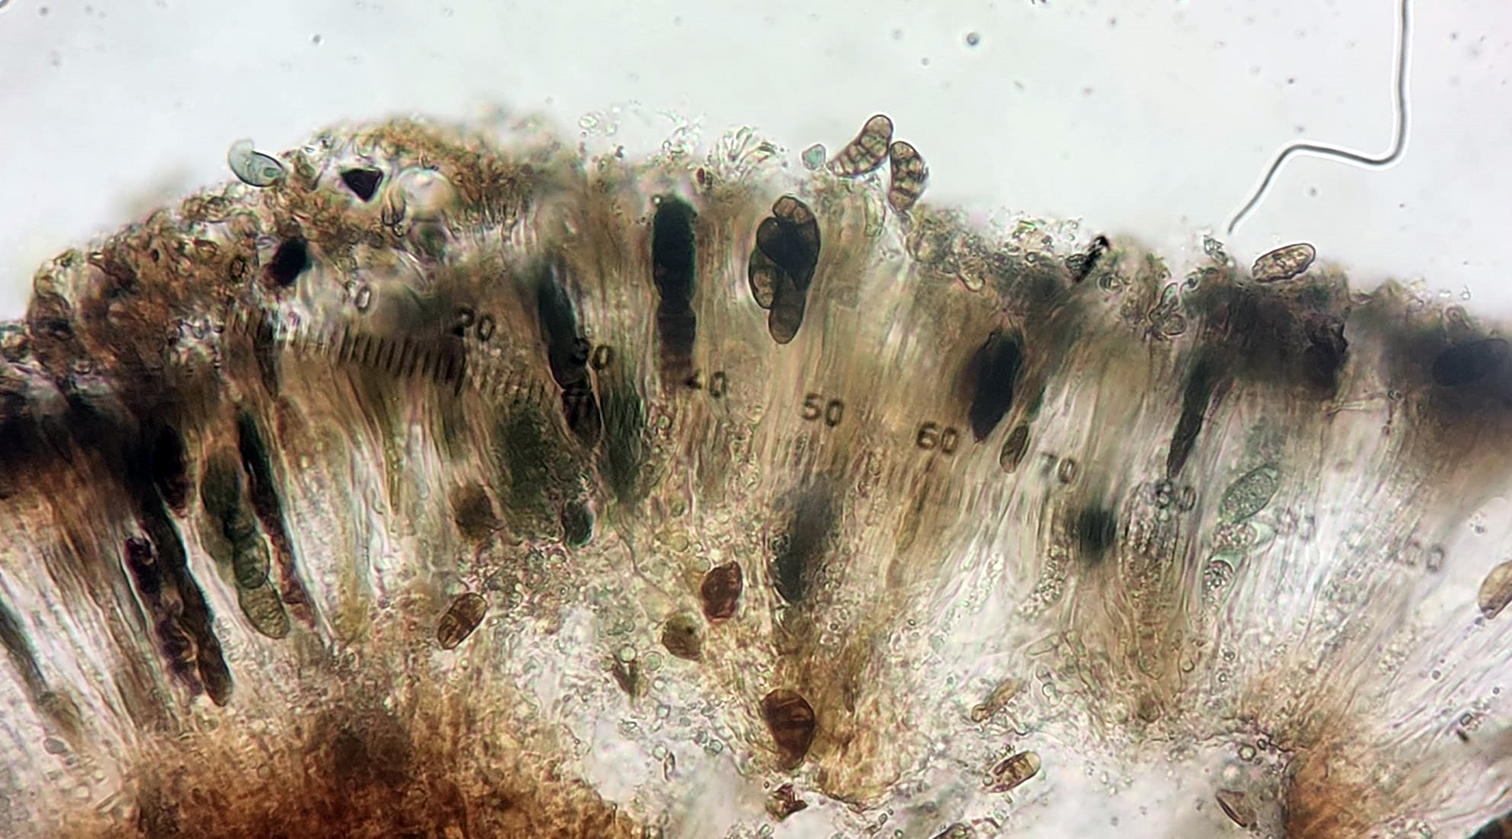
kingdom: Fungi
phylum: Ascomycota
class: Lecanoromycetes
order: Caliciales
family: Caliciaceae
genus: Diplotomma
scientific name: Diplotomma alboatrum
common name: Grayish button lichen
